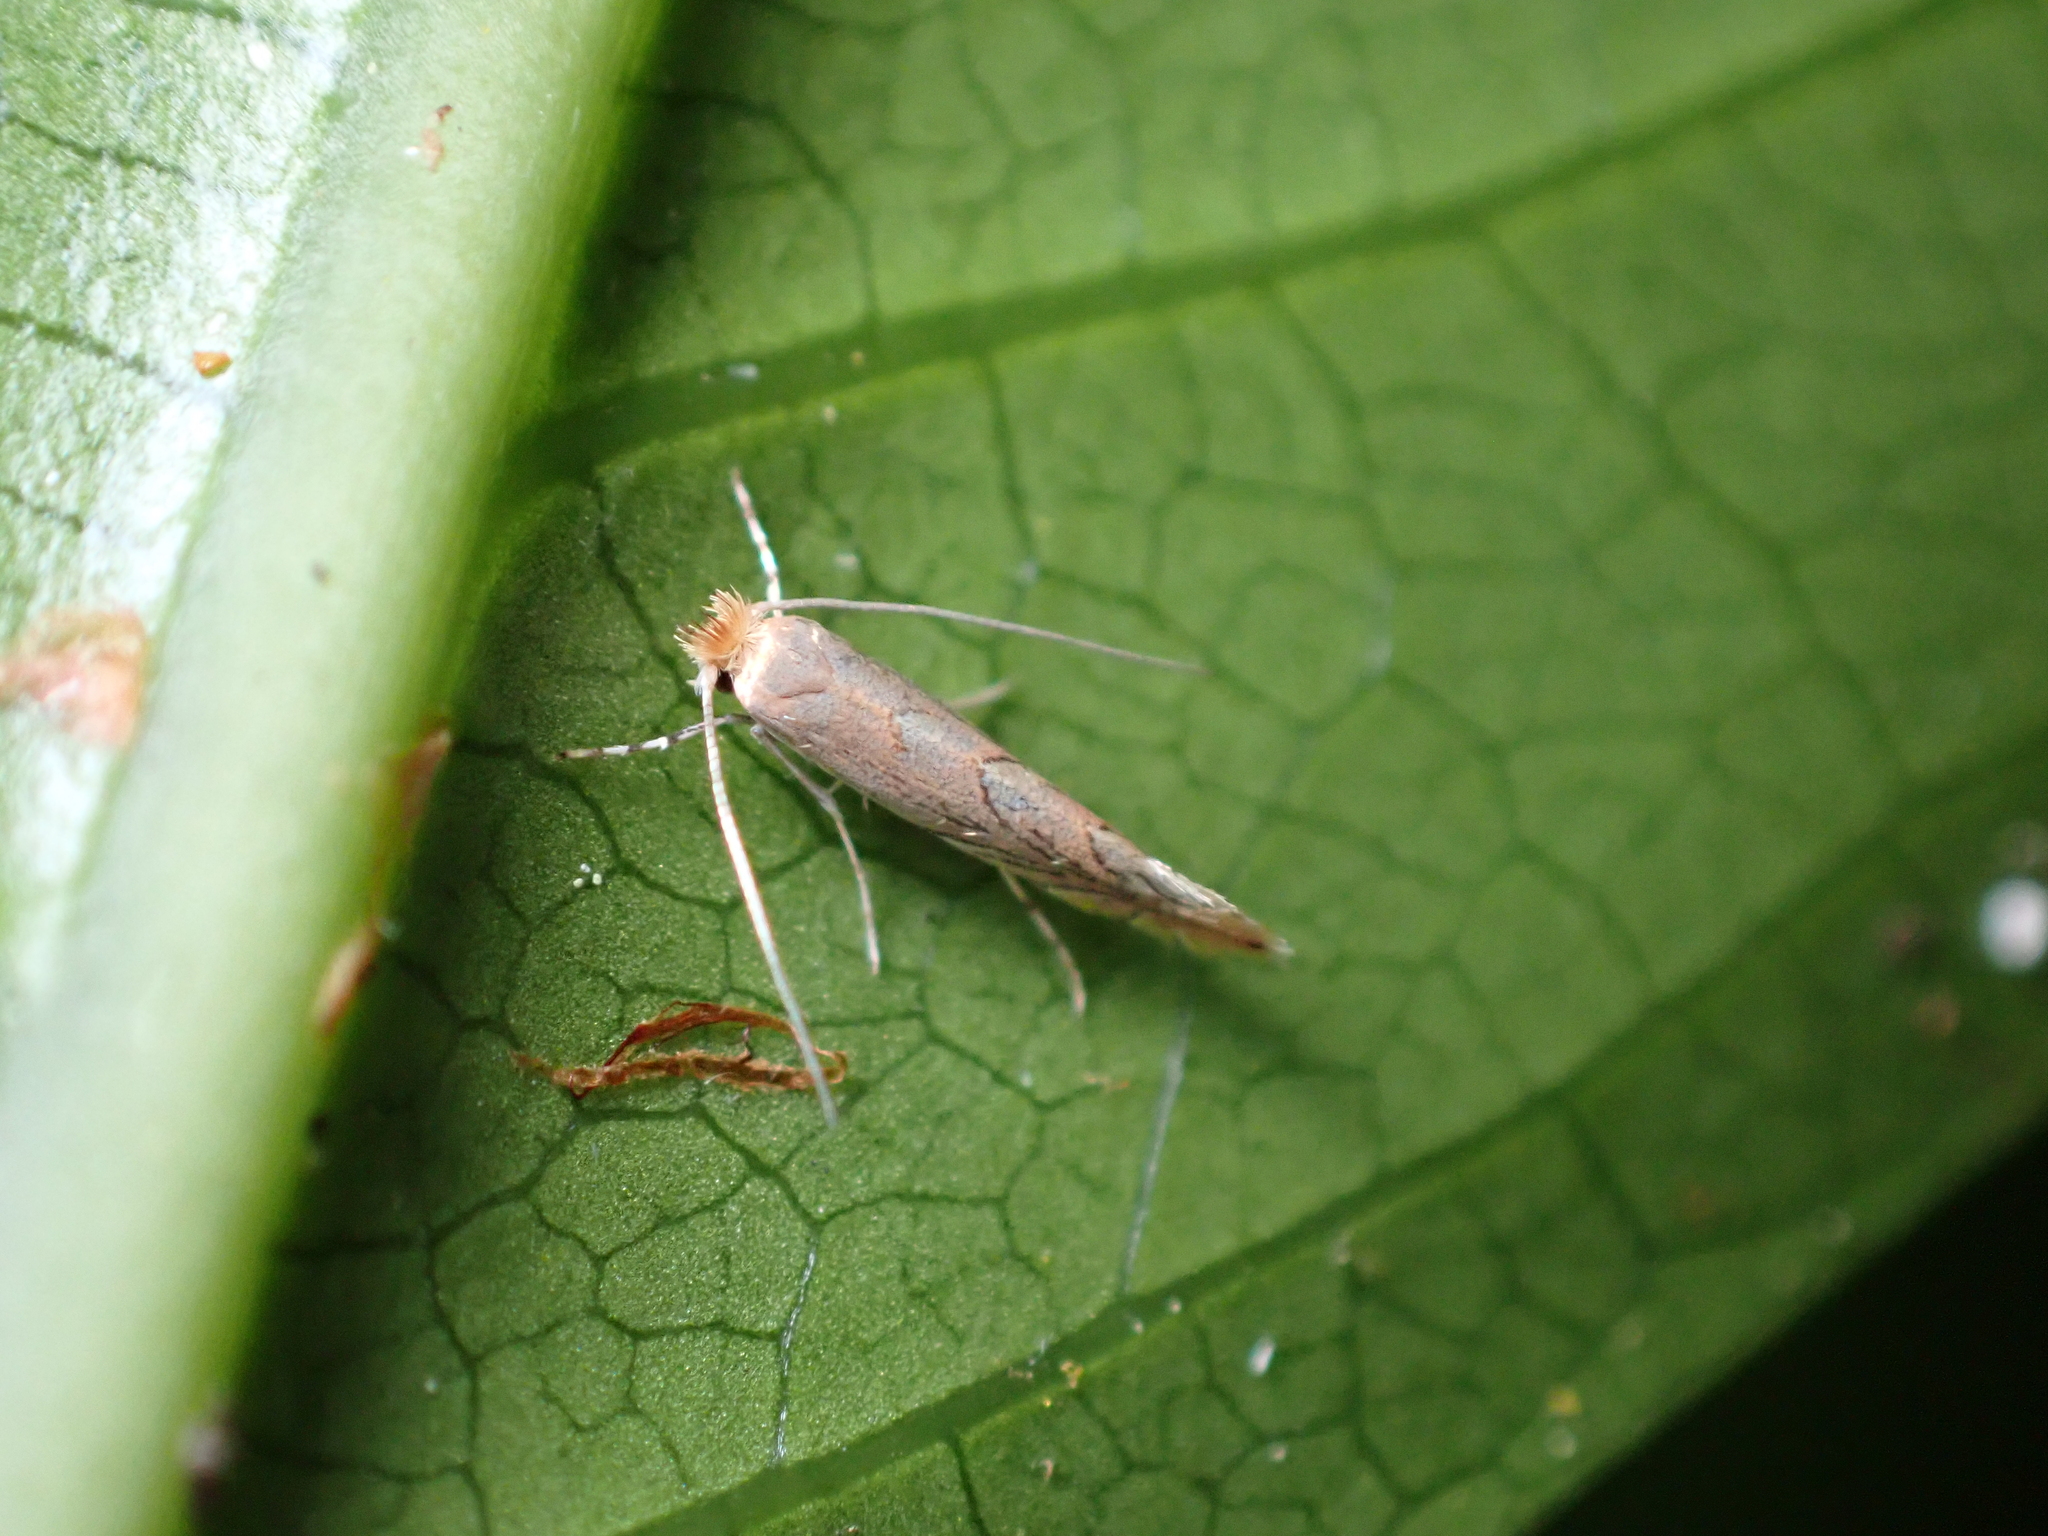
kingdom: Animalia
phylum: Arthropoda
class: Insecta
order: Lepidoptera
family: Gracillariidae
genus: Phyllonorycter
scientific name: Phyllonorycter messaniella
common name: Garden midget
